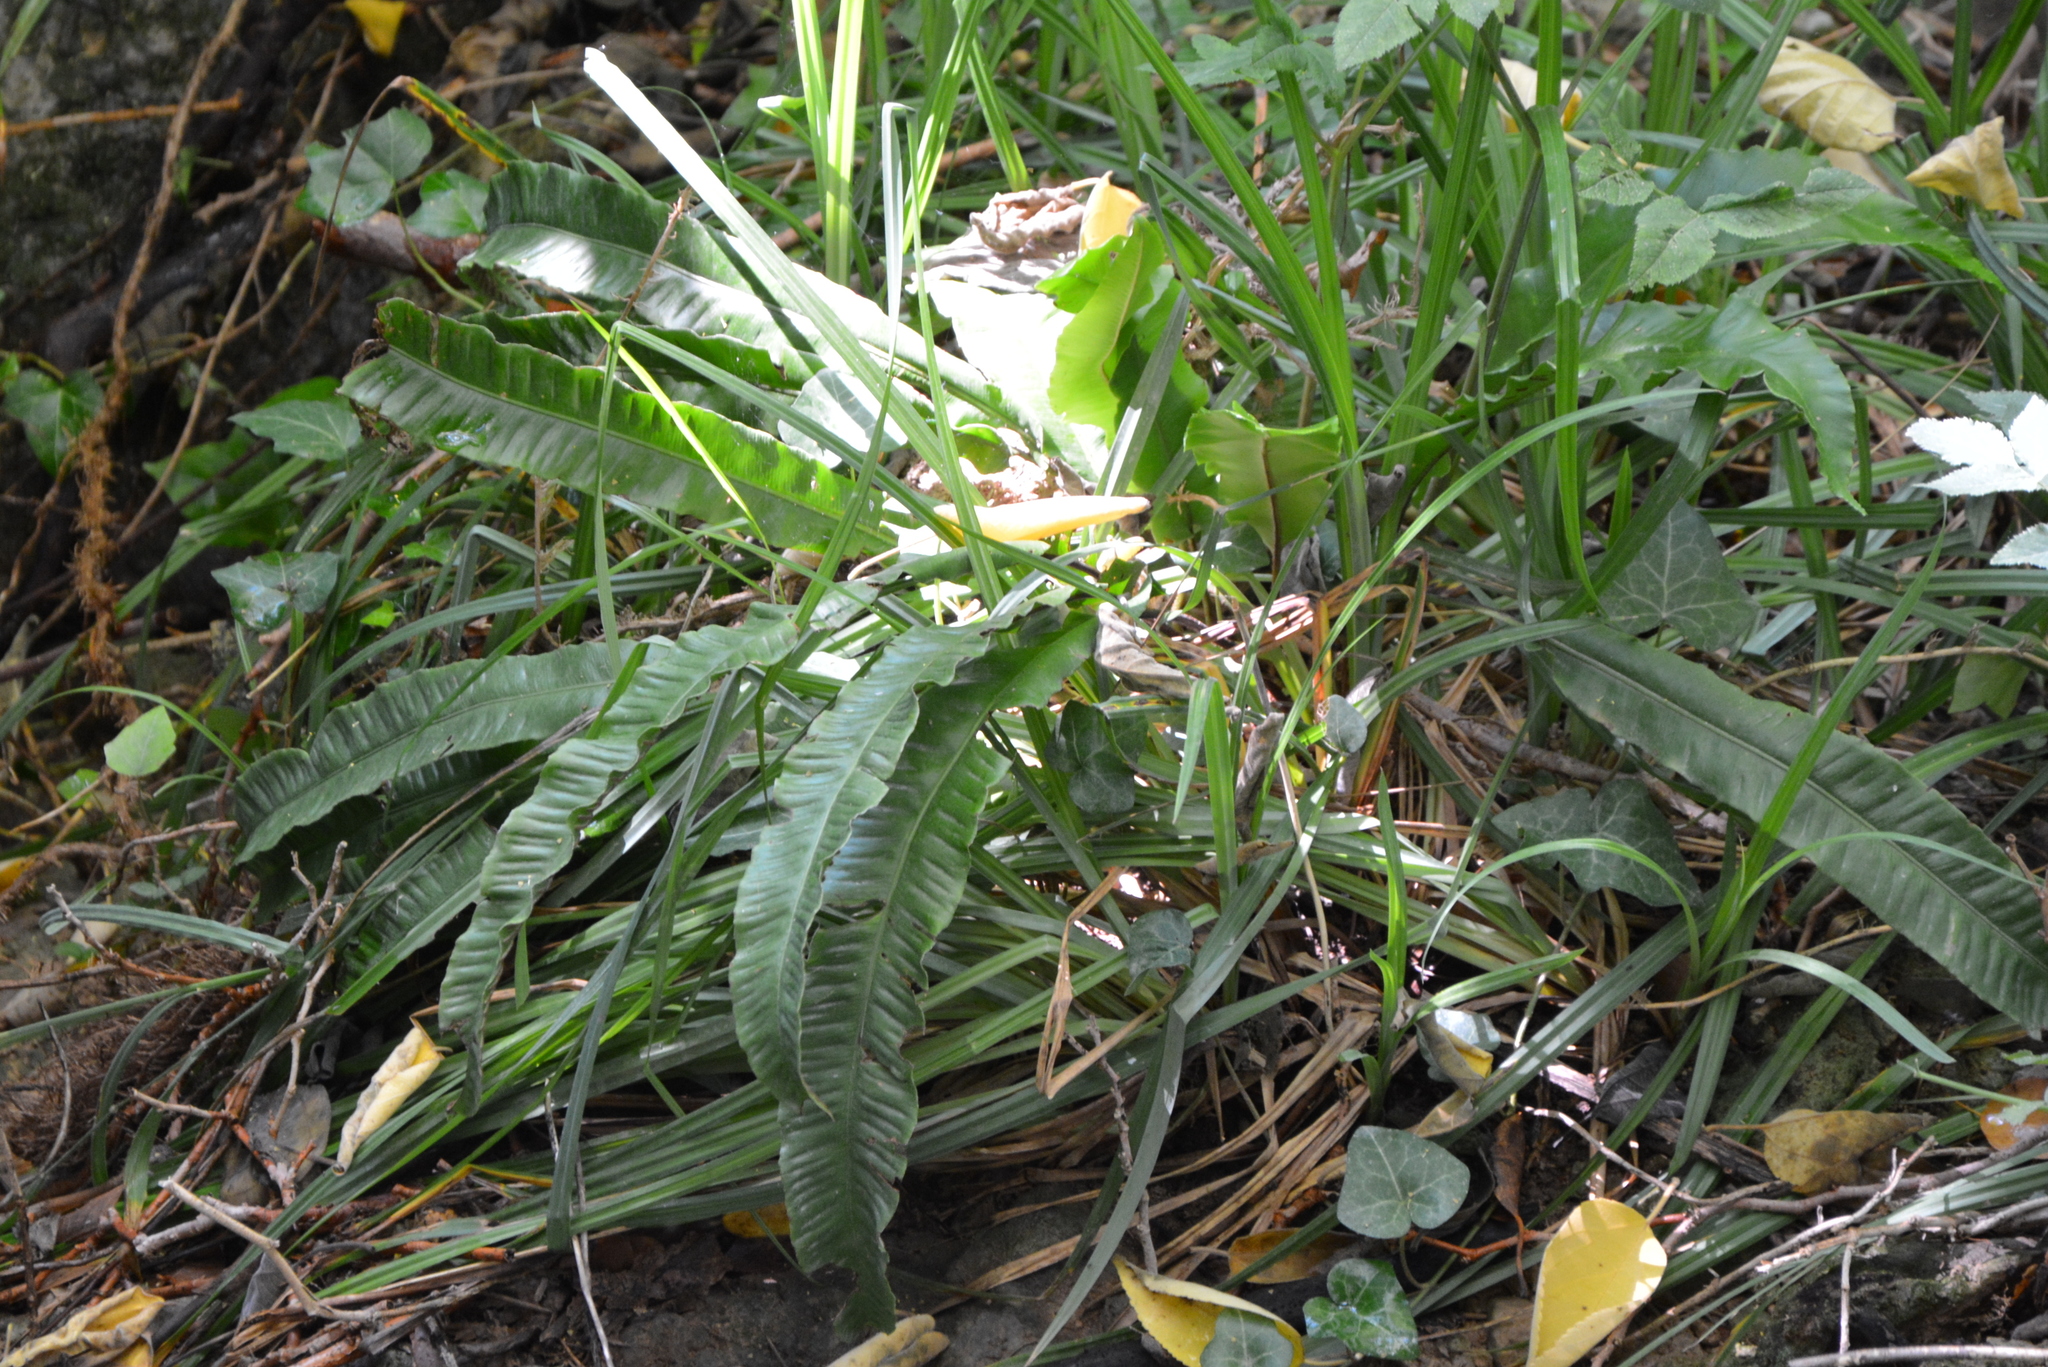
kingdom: Plantae
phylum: Tracheophyta
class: Polypodiopsida
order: Polypodiales
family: Aspleniaceae
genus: Asplenium
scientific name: Asplenium scolopendrium
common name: Hart's-tongue fern
